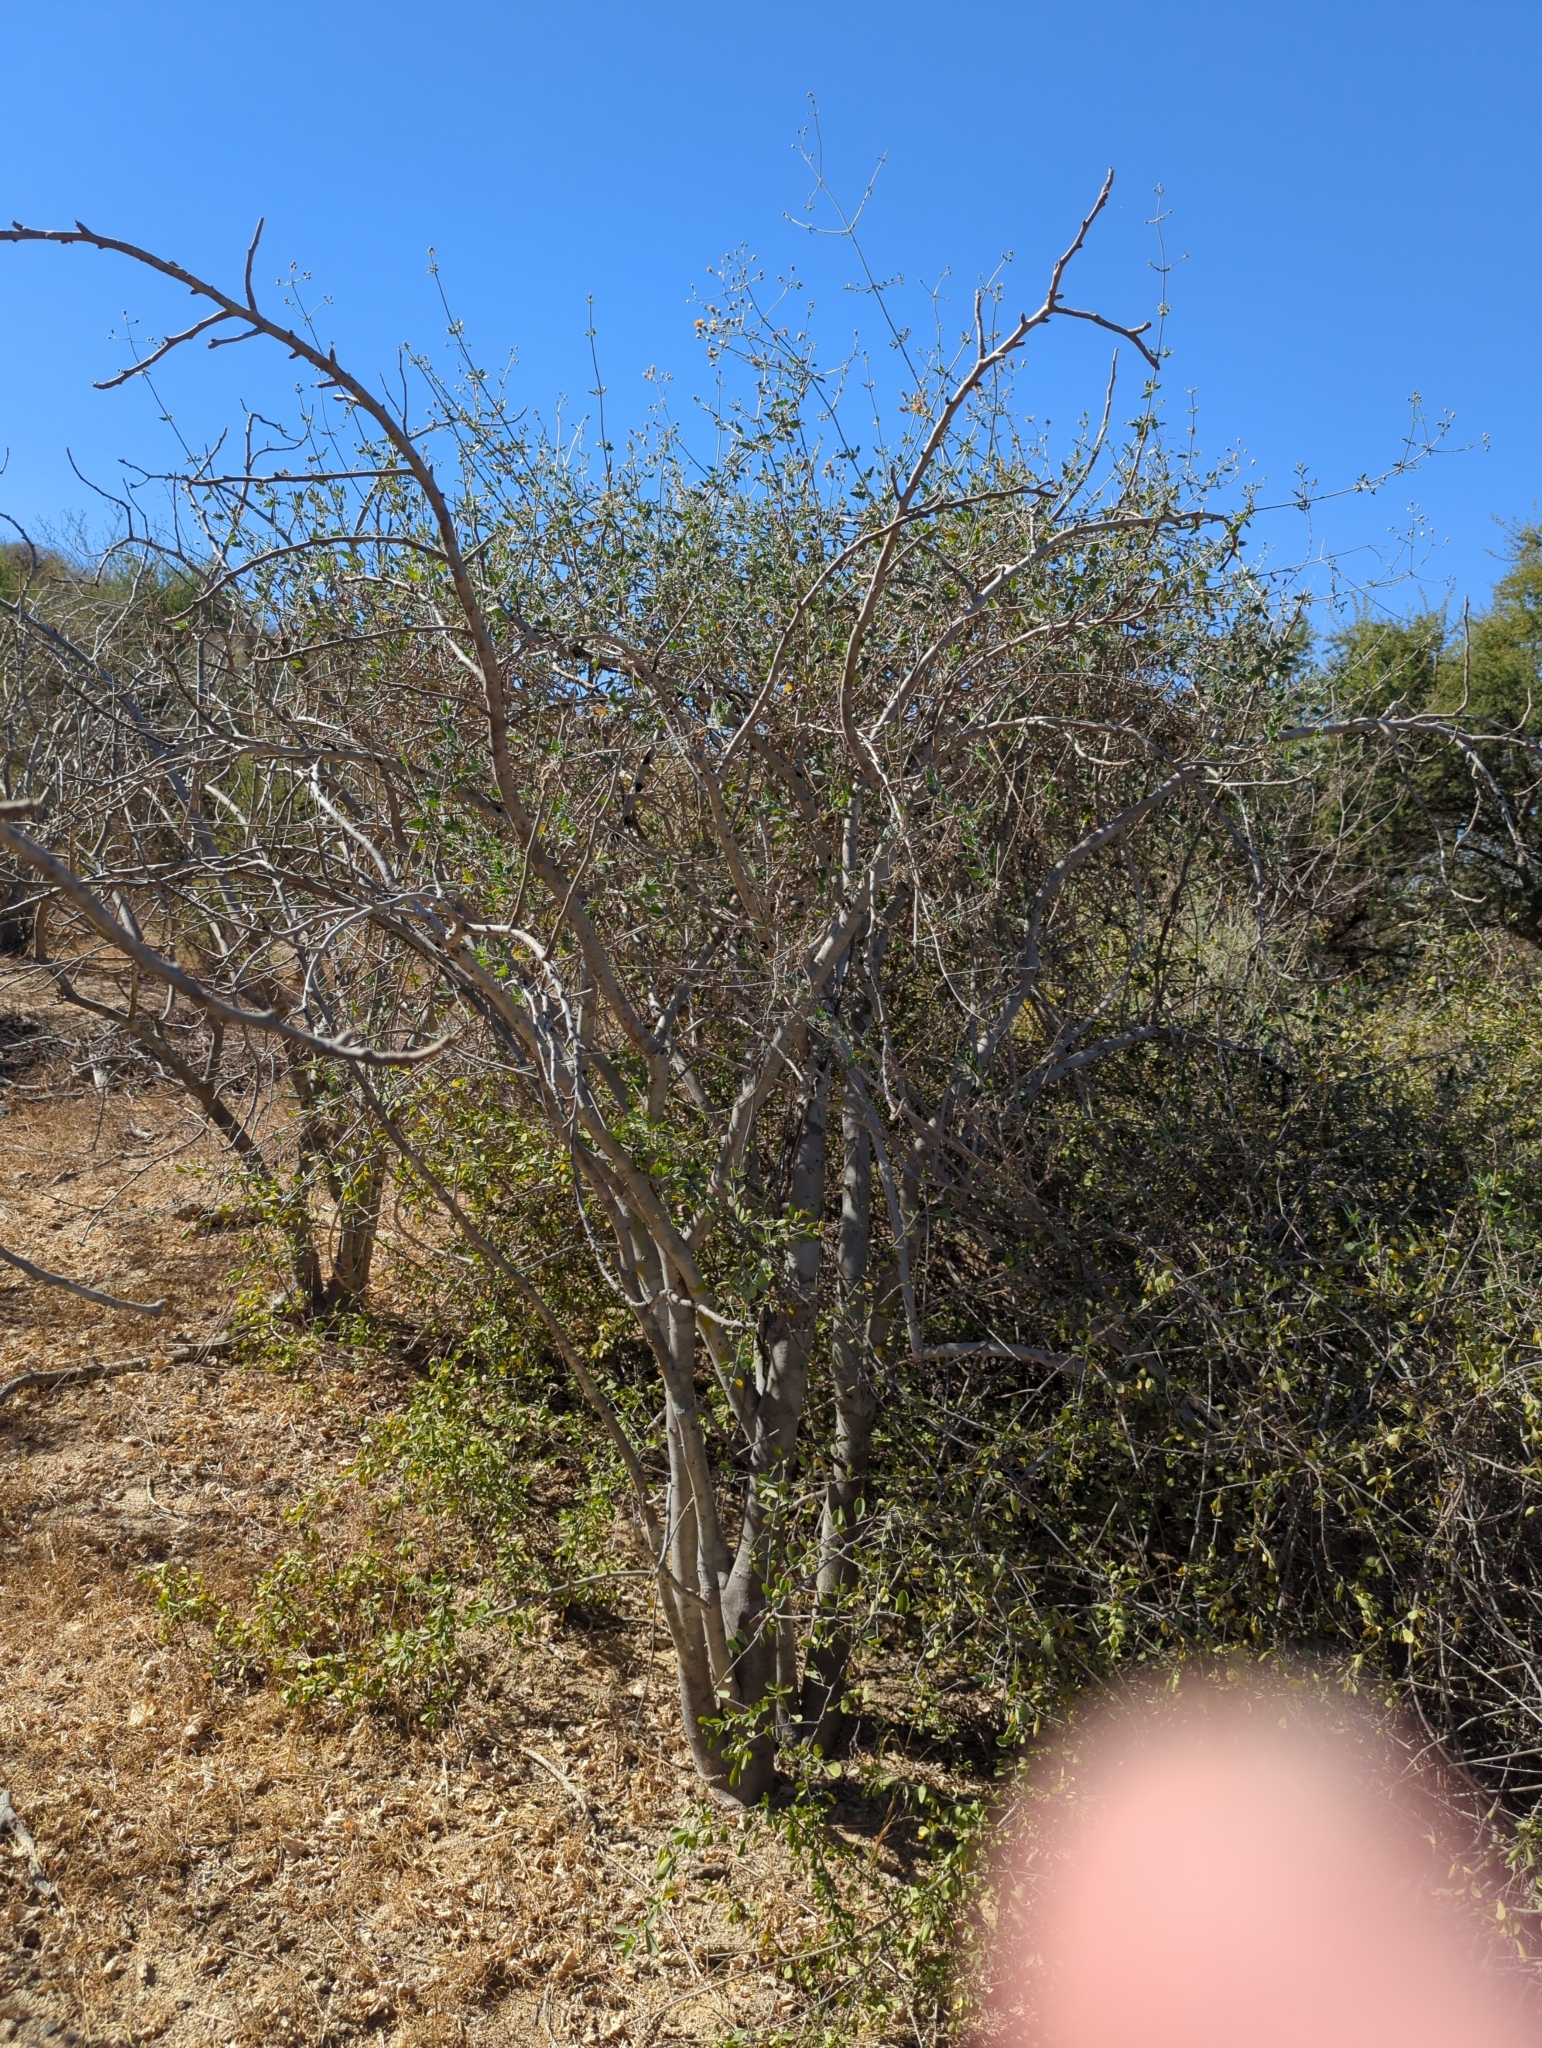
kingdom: Plantae
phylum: Tracheophyta
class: Magnoliopsida
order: Asterales
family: Asteraceae
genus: Bebbia
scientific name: Bebbia atriplicifolia
